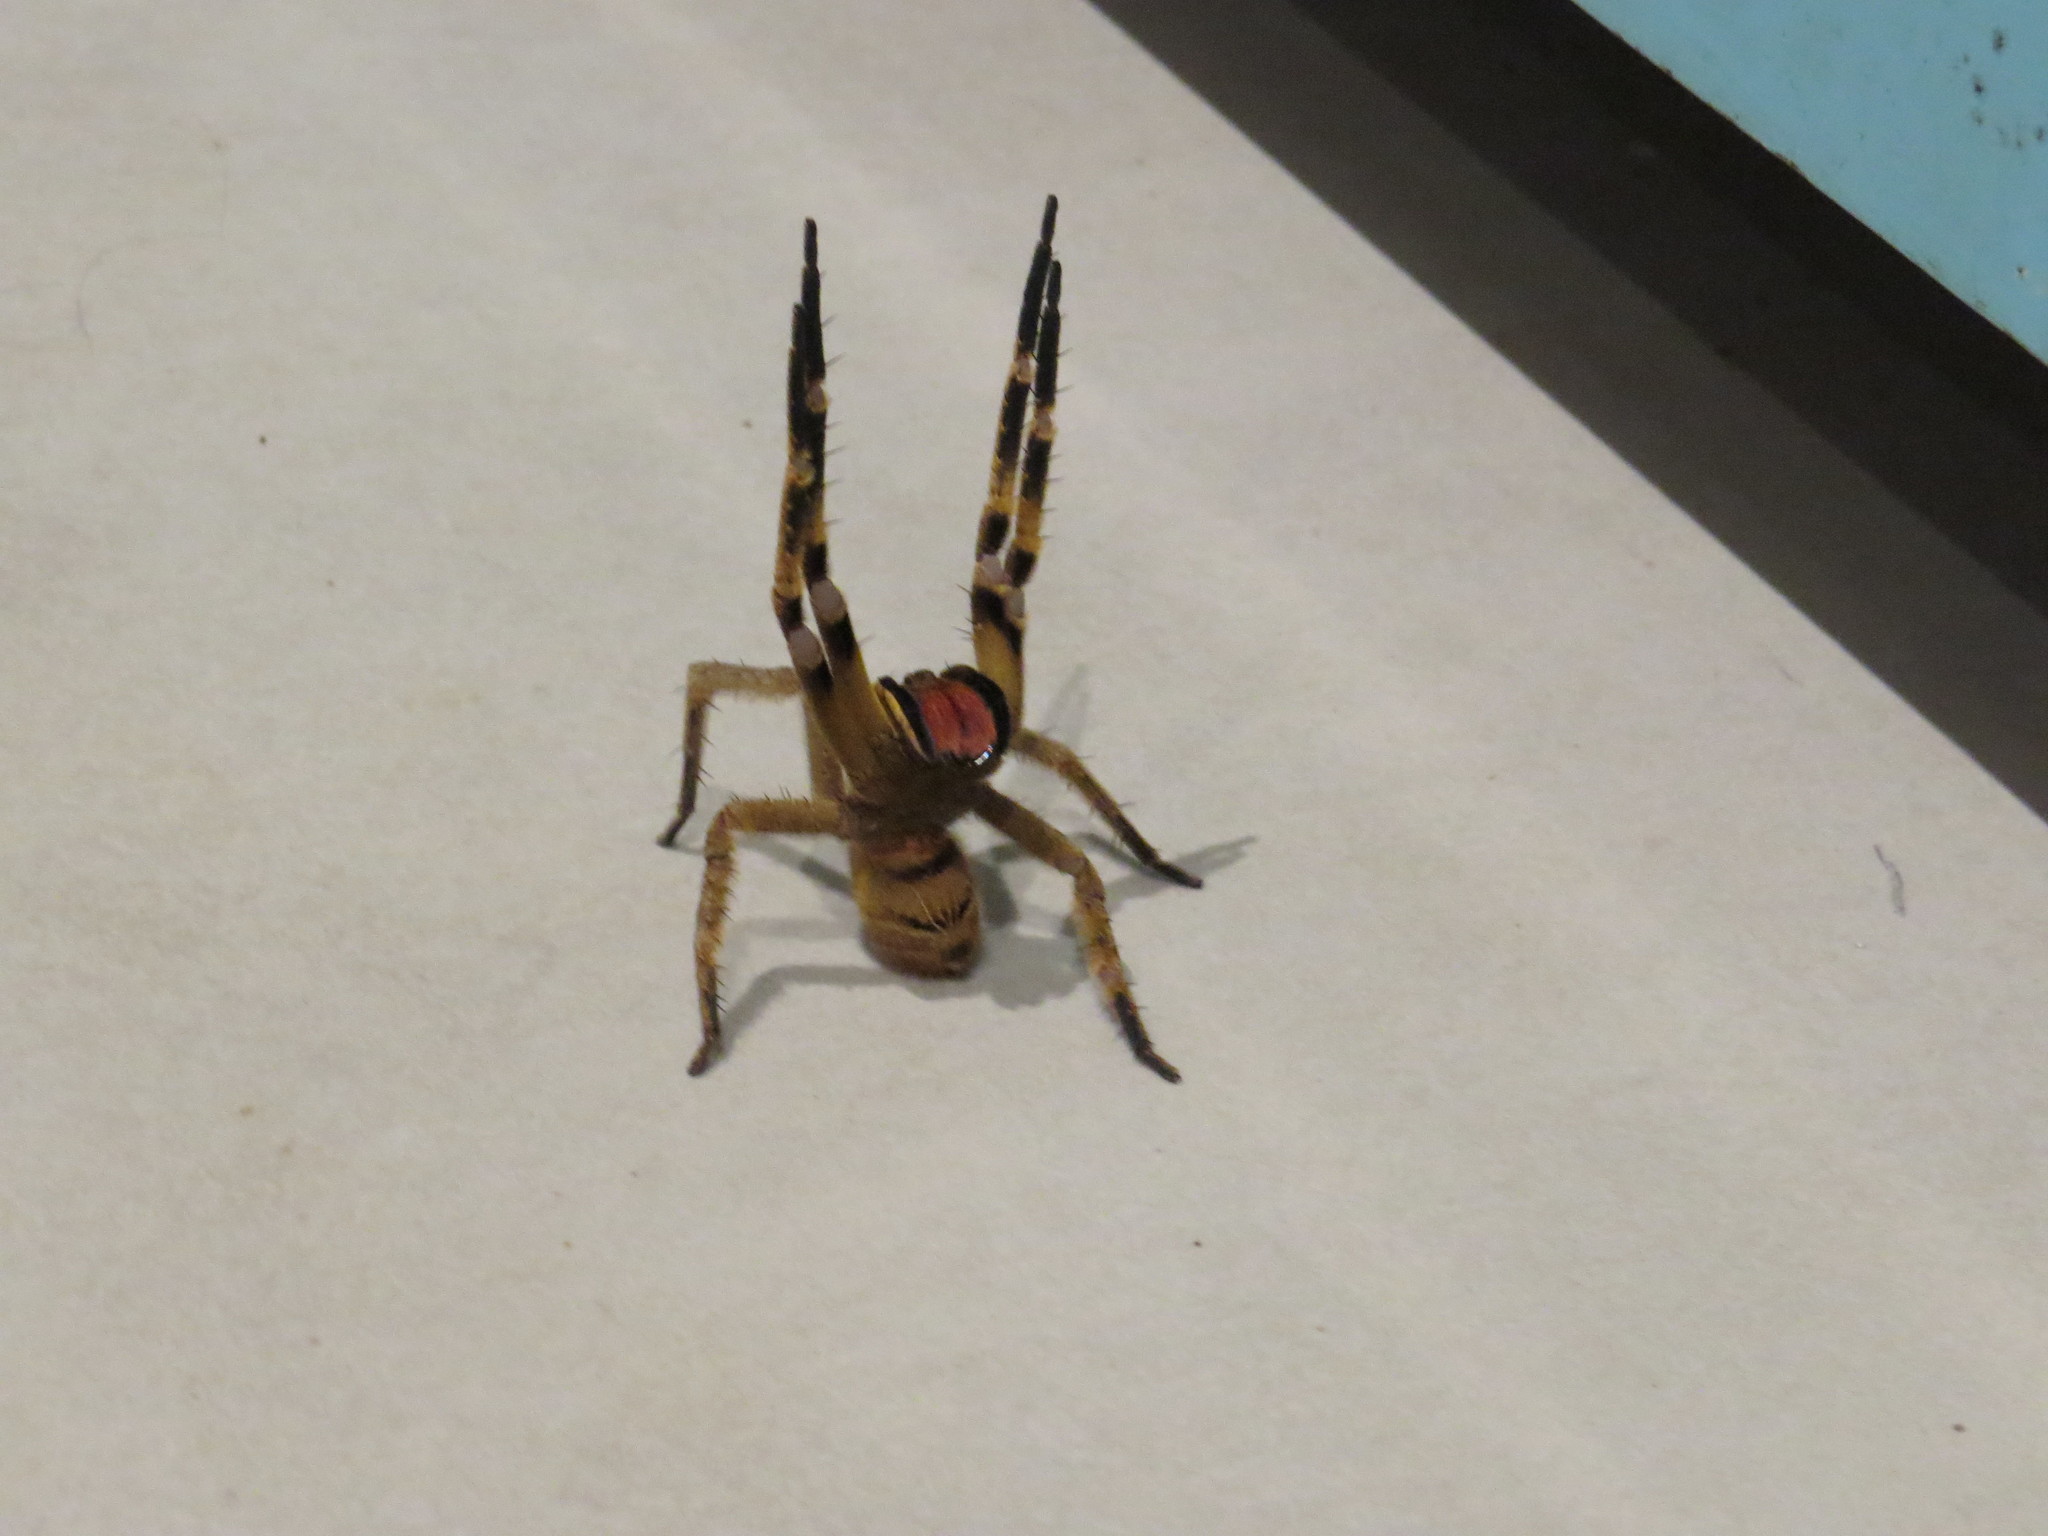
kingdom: Animalia
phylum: Arthropoda
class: Arachnida
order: Araneae
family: Ctenidae
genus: Phoneutria
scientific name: Phoneutria pertyi
